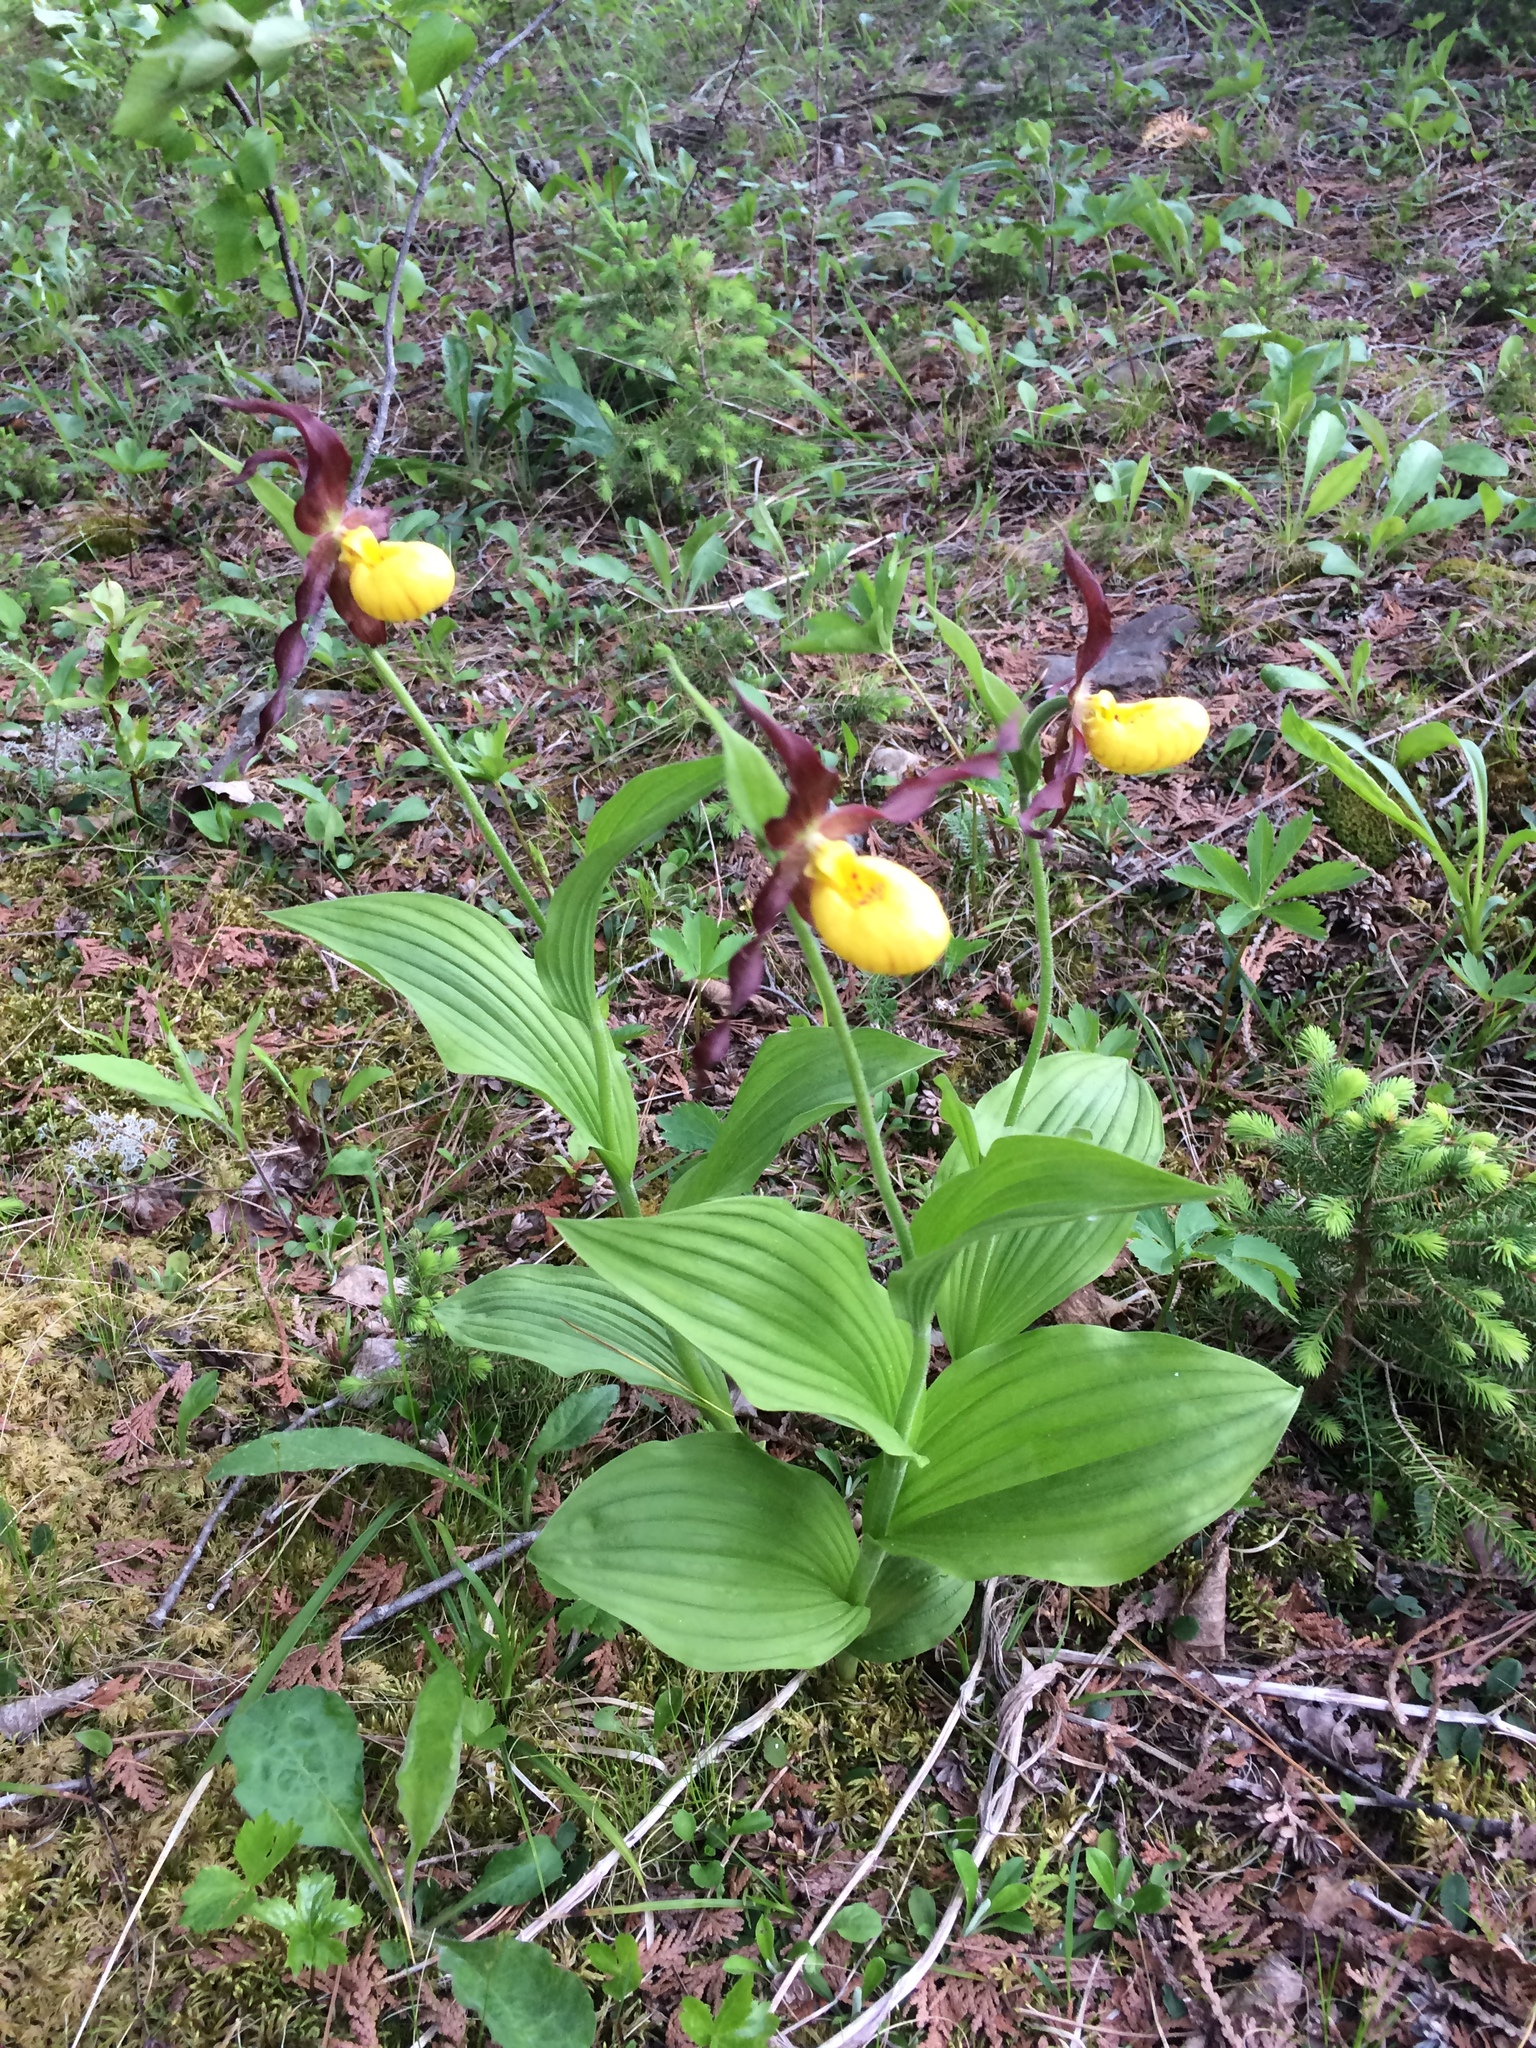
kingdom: Plantae
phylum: Tracheophyta
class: Liliopsida
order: Asparagales
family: Orchidaceae
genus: Cypripedium
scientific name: Cypripedium parviflorum
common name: American yellow lady's-slipper
